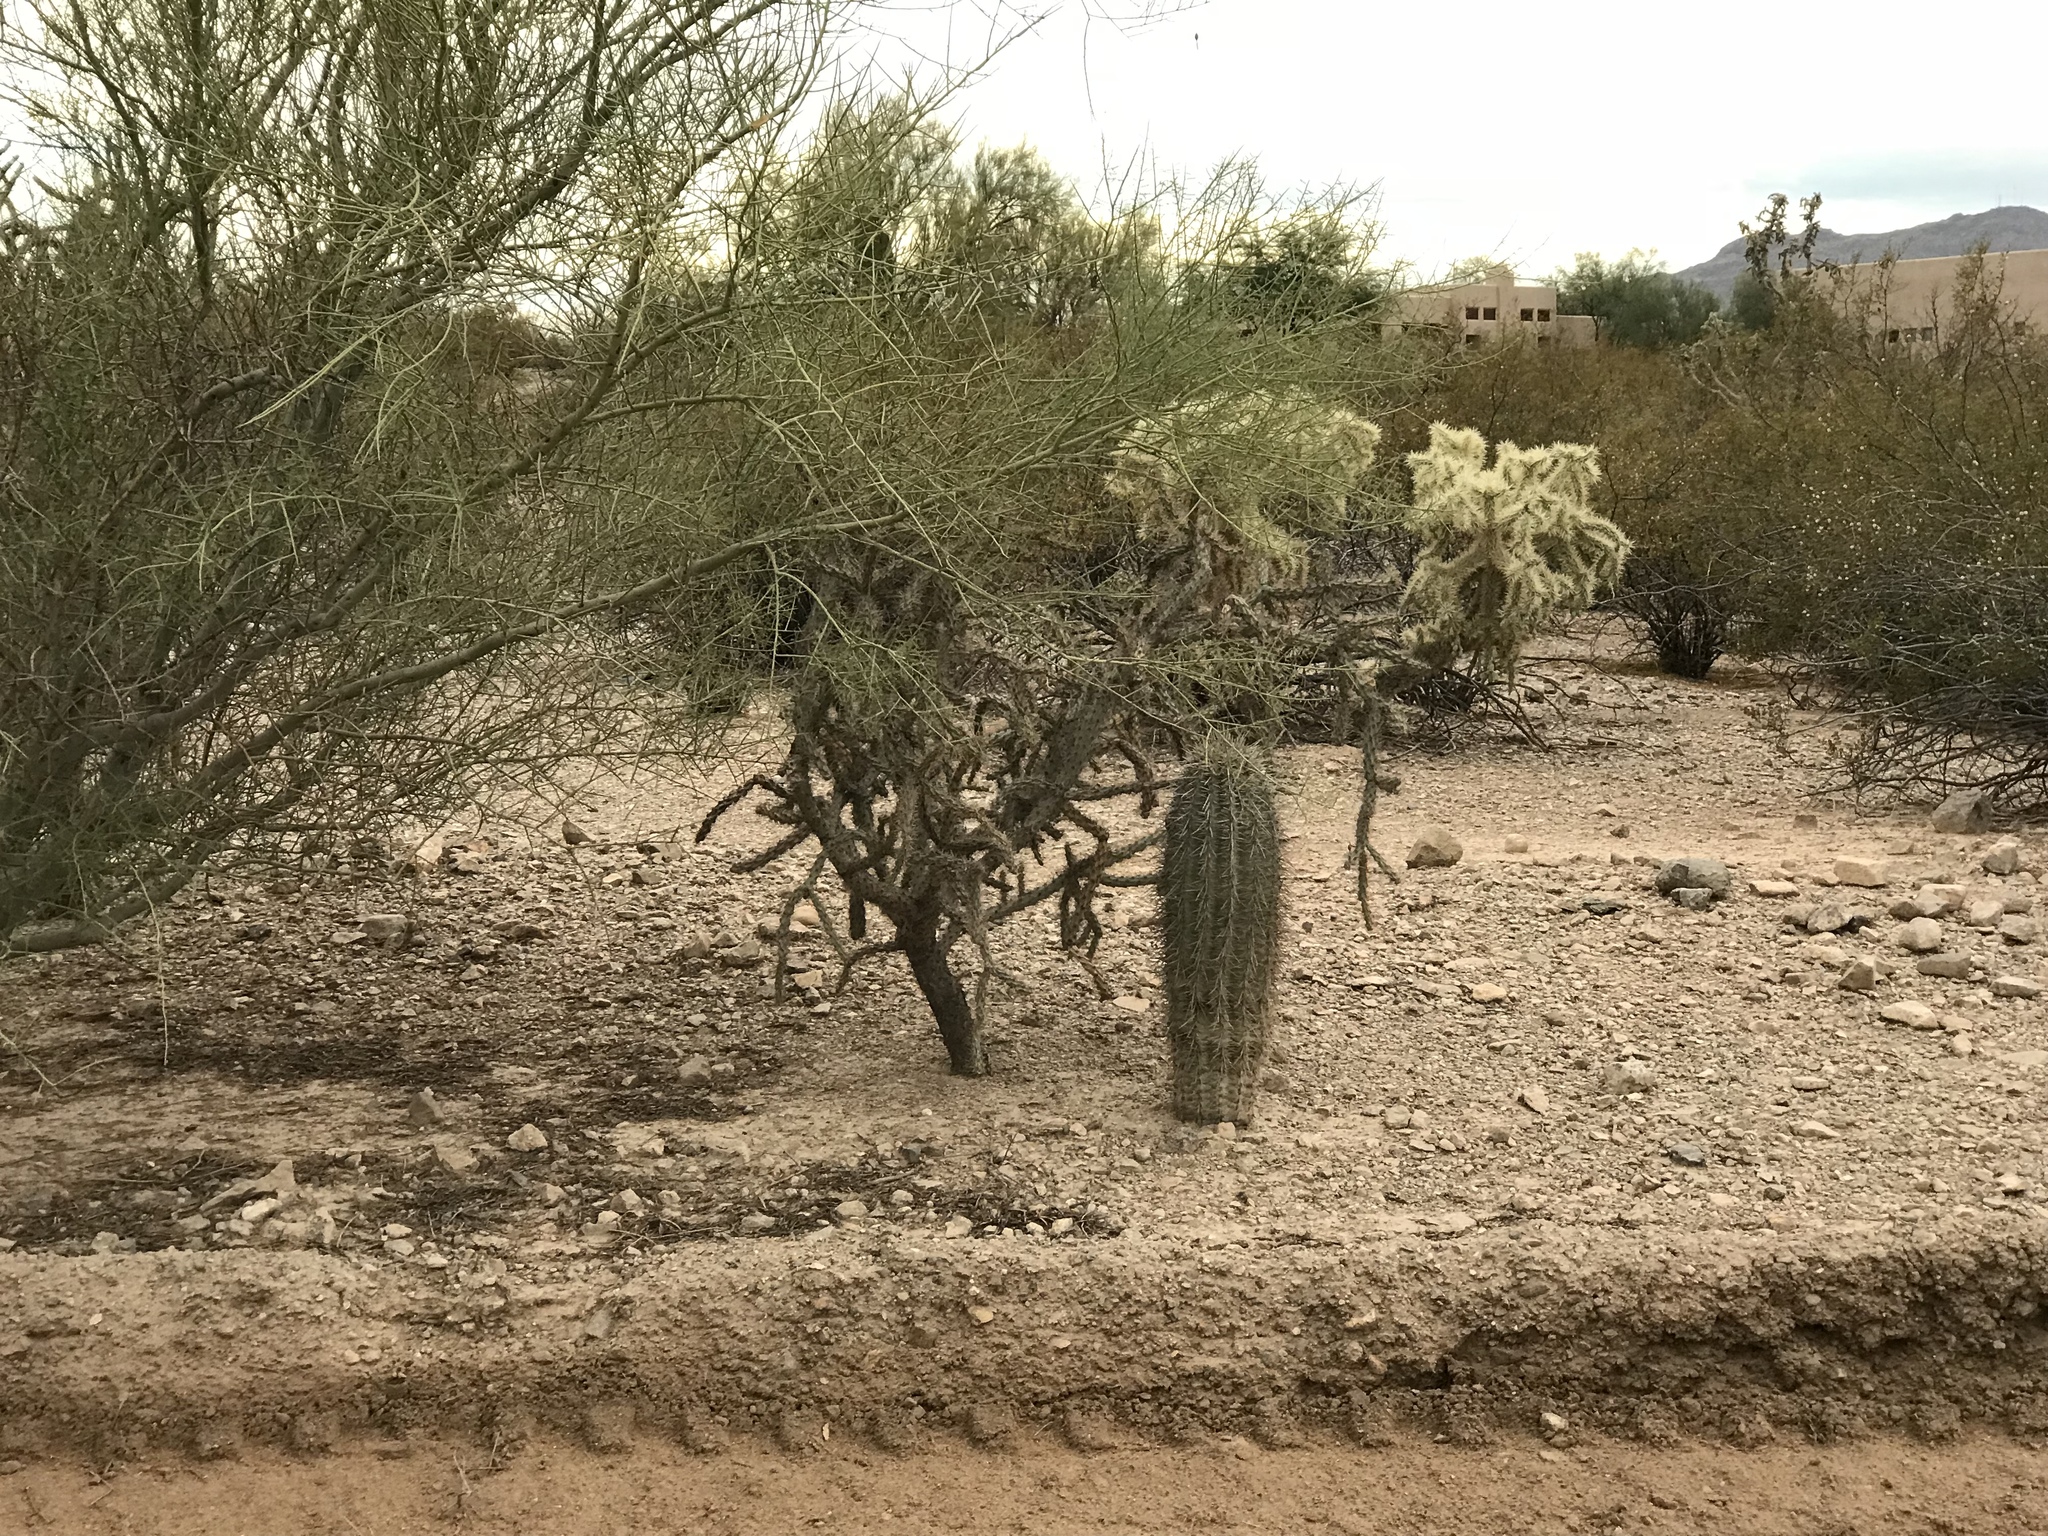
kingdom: Plantae
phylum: Tracheophyta
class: Magnoliopsida
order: Caryophyllales
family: Cactaceae
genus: Carnegiea
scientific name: Carnegiea gigantea
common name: Saguaro
